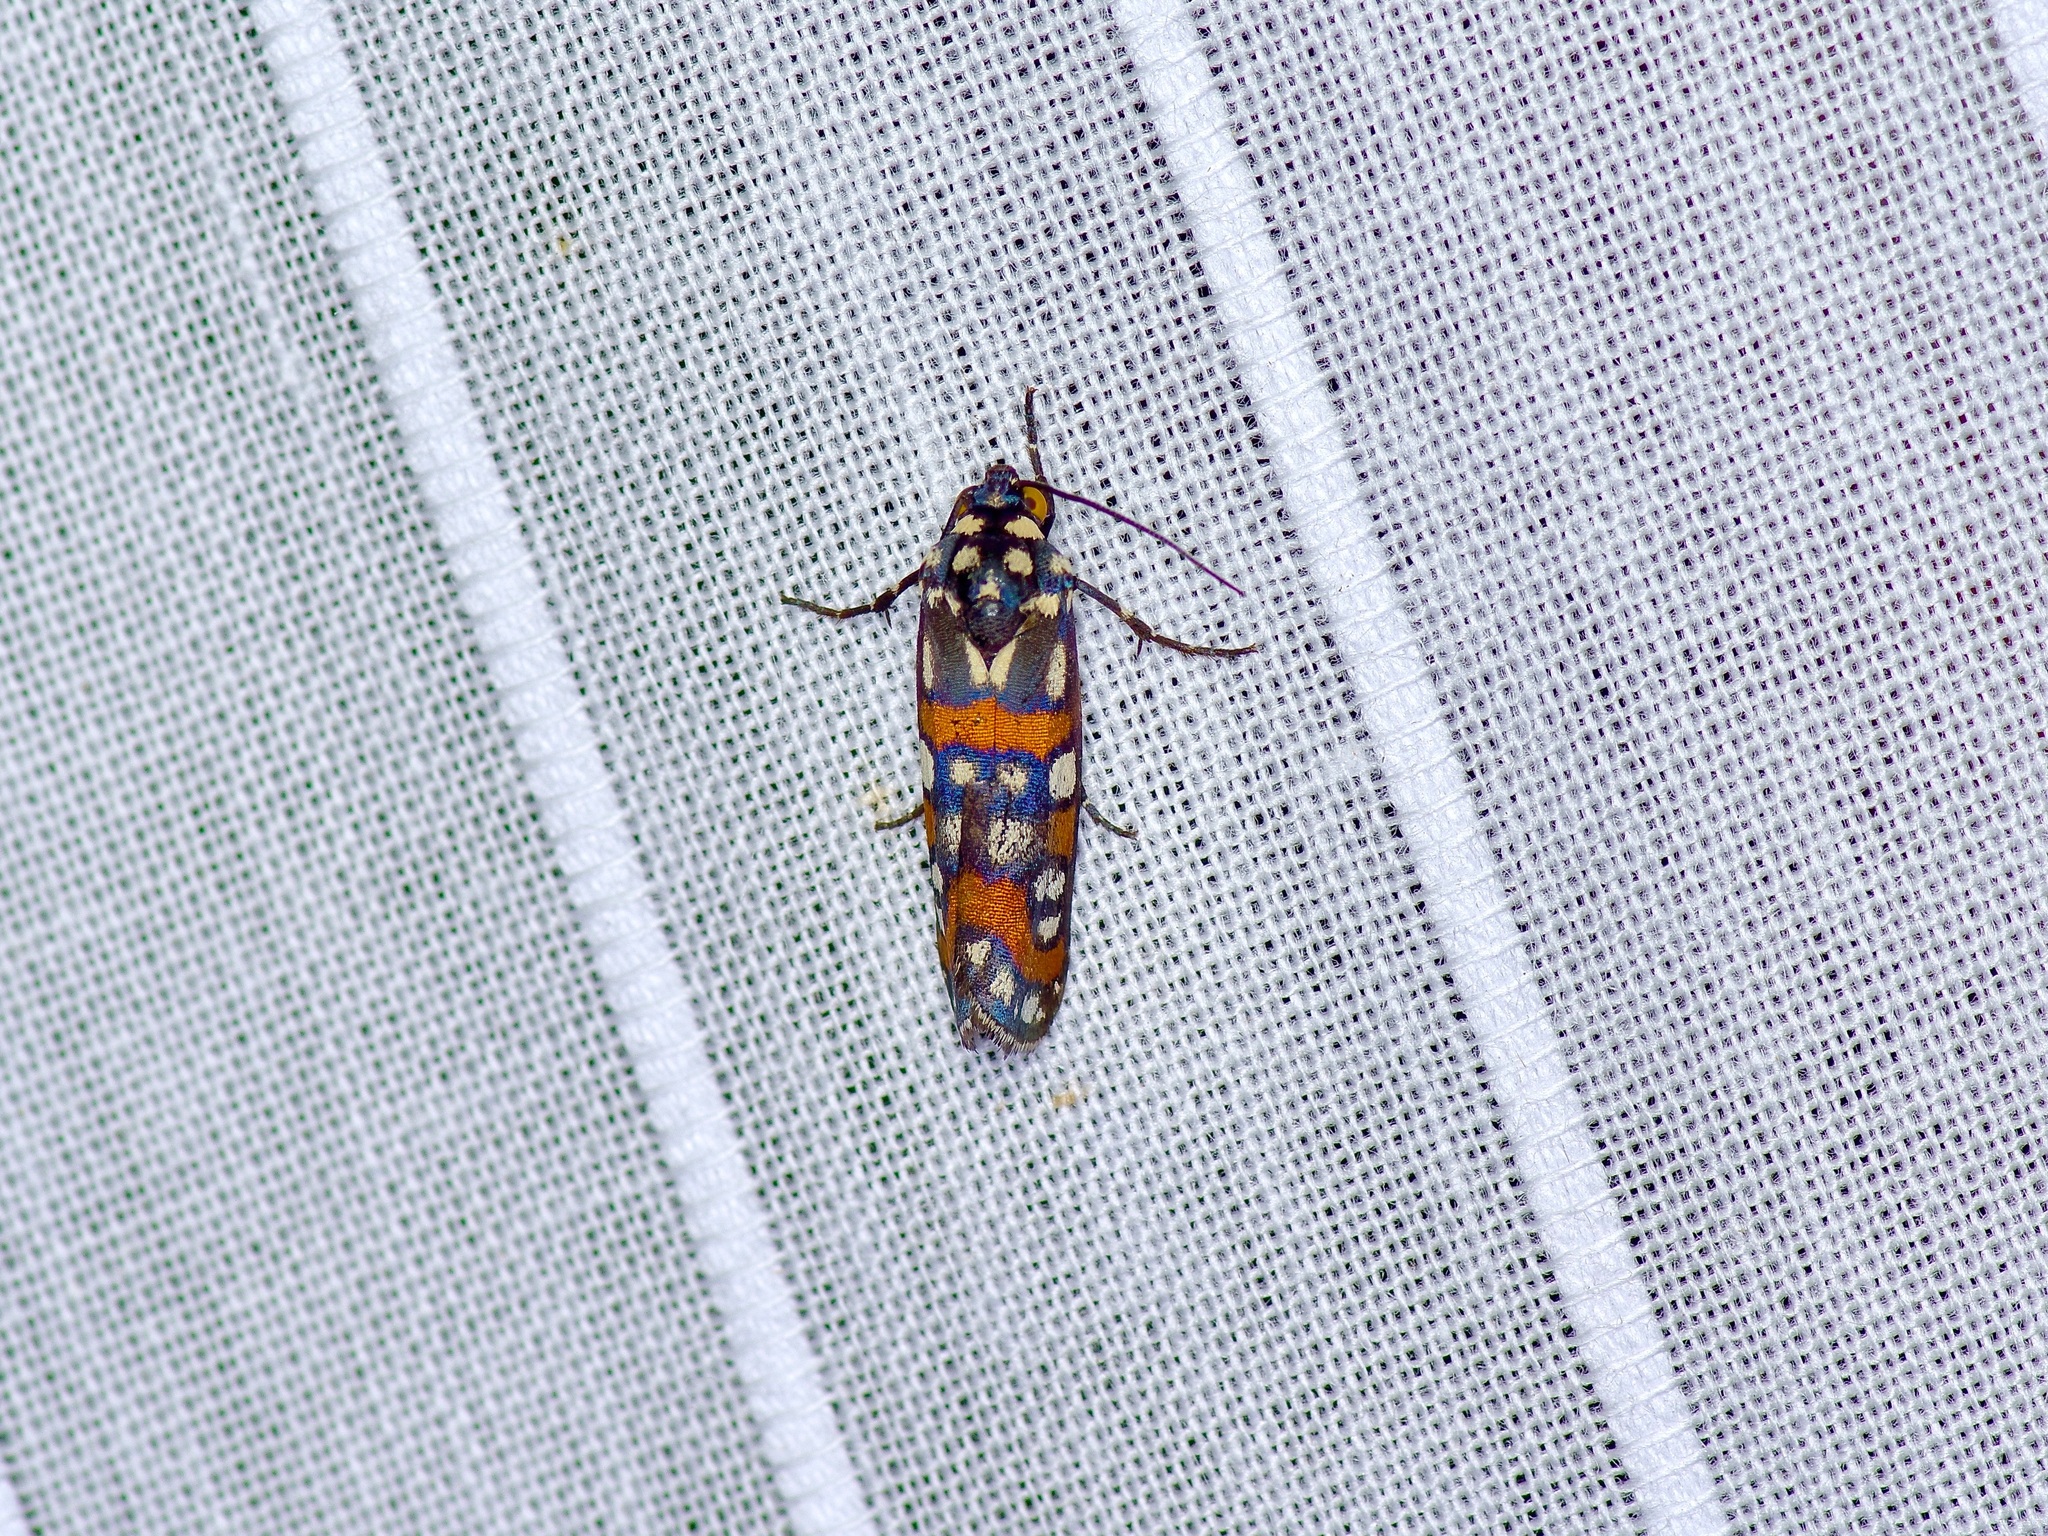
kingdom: Animalia
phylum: Arthropoda
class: Insecta
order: Lepidoptera
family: Noctuidae
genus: Cydosia
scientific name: Cydosia aurivitta
